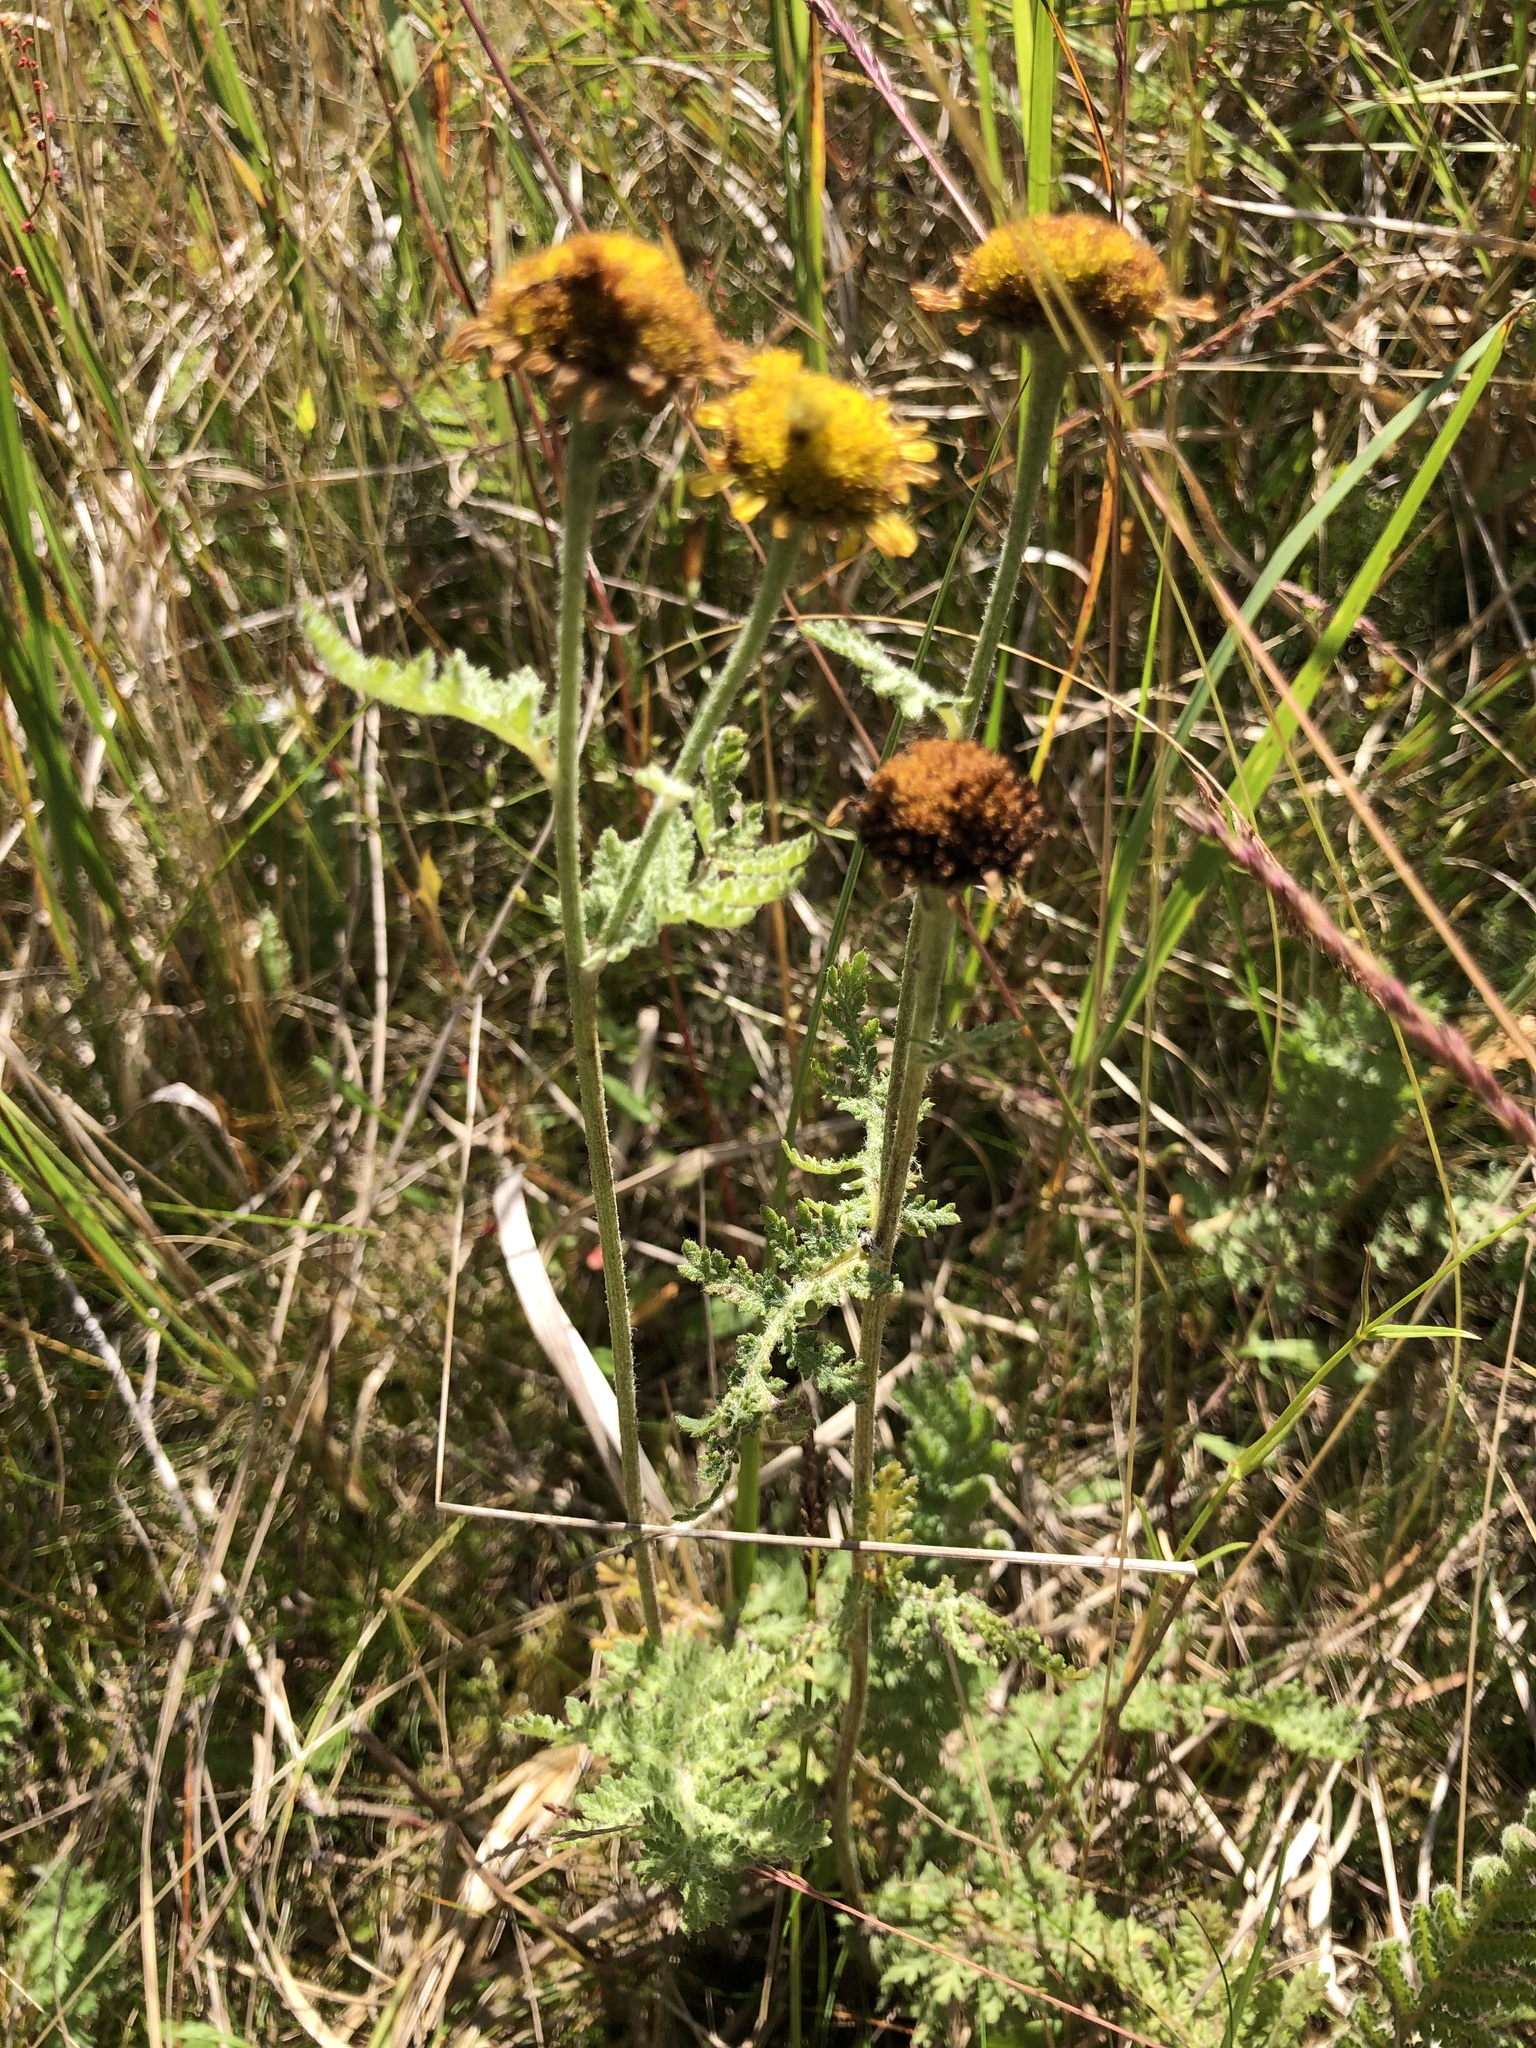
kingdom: Plantae
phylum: Tracheophyta
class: Magnoliopsida
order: Asterales
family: Asteraceae
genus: Tanacetum
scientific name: Tanacetum bipinnatum
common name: Dwarf tansy
